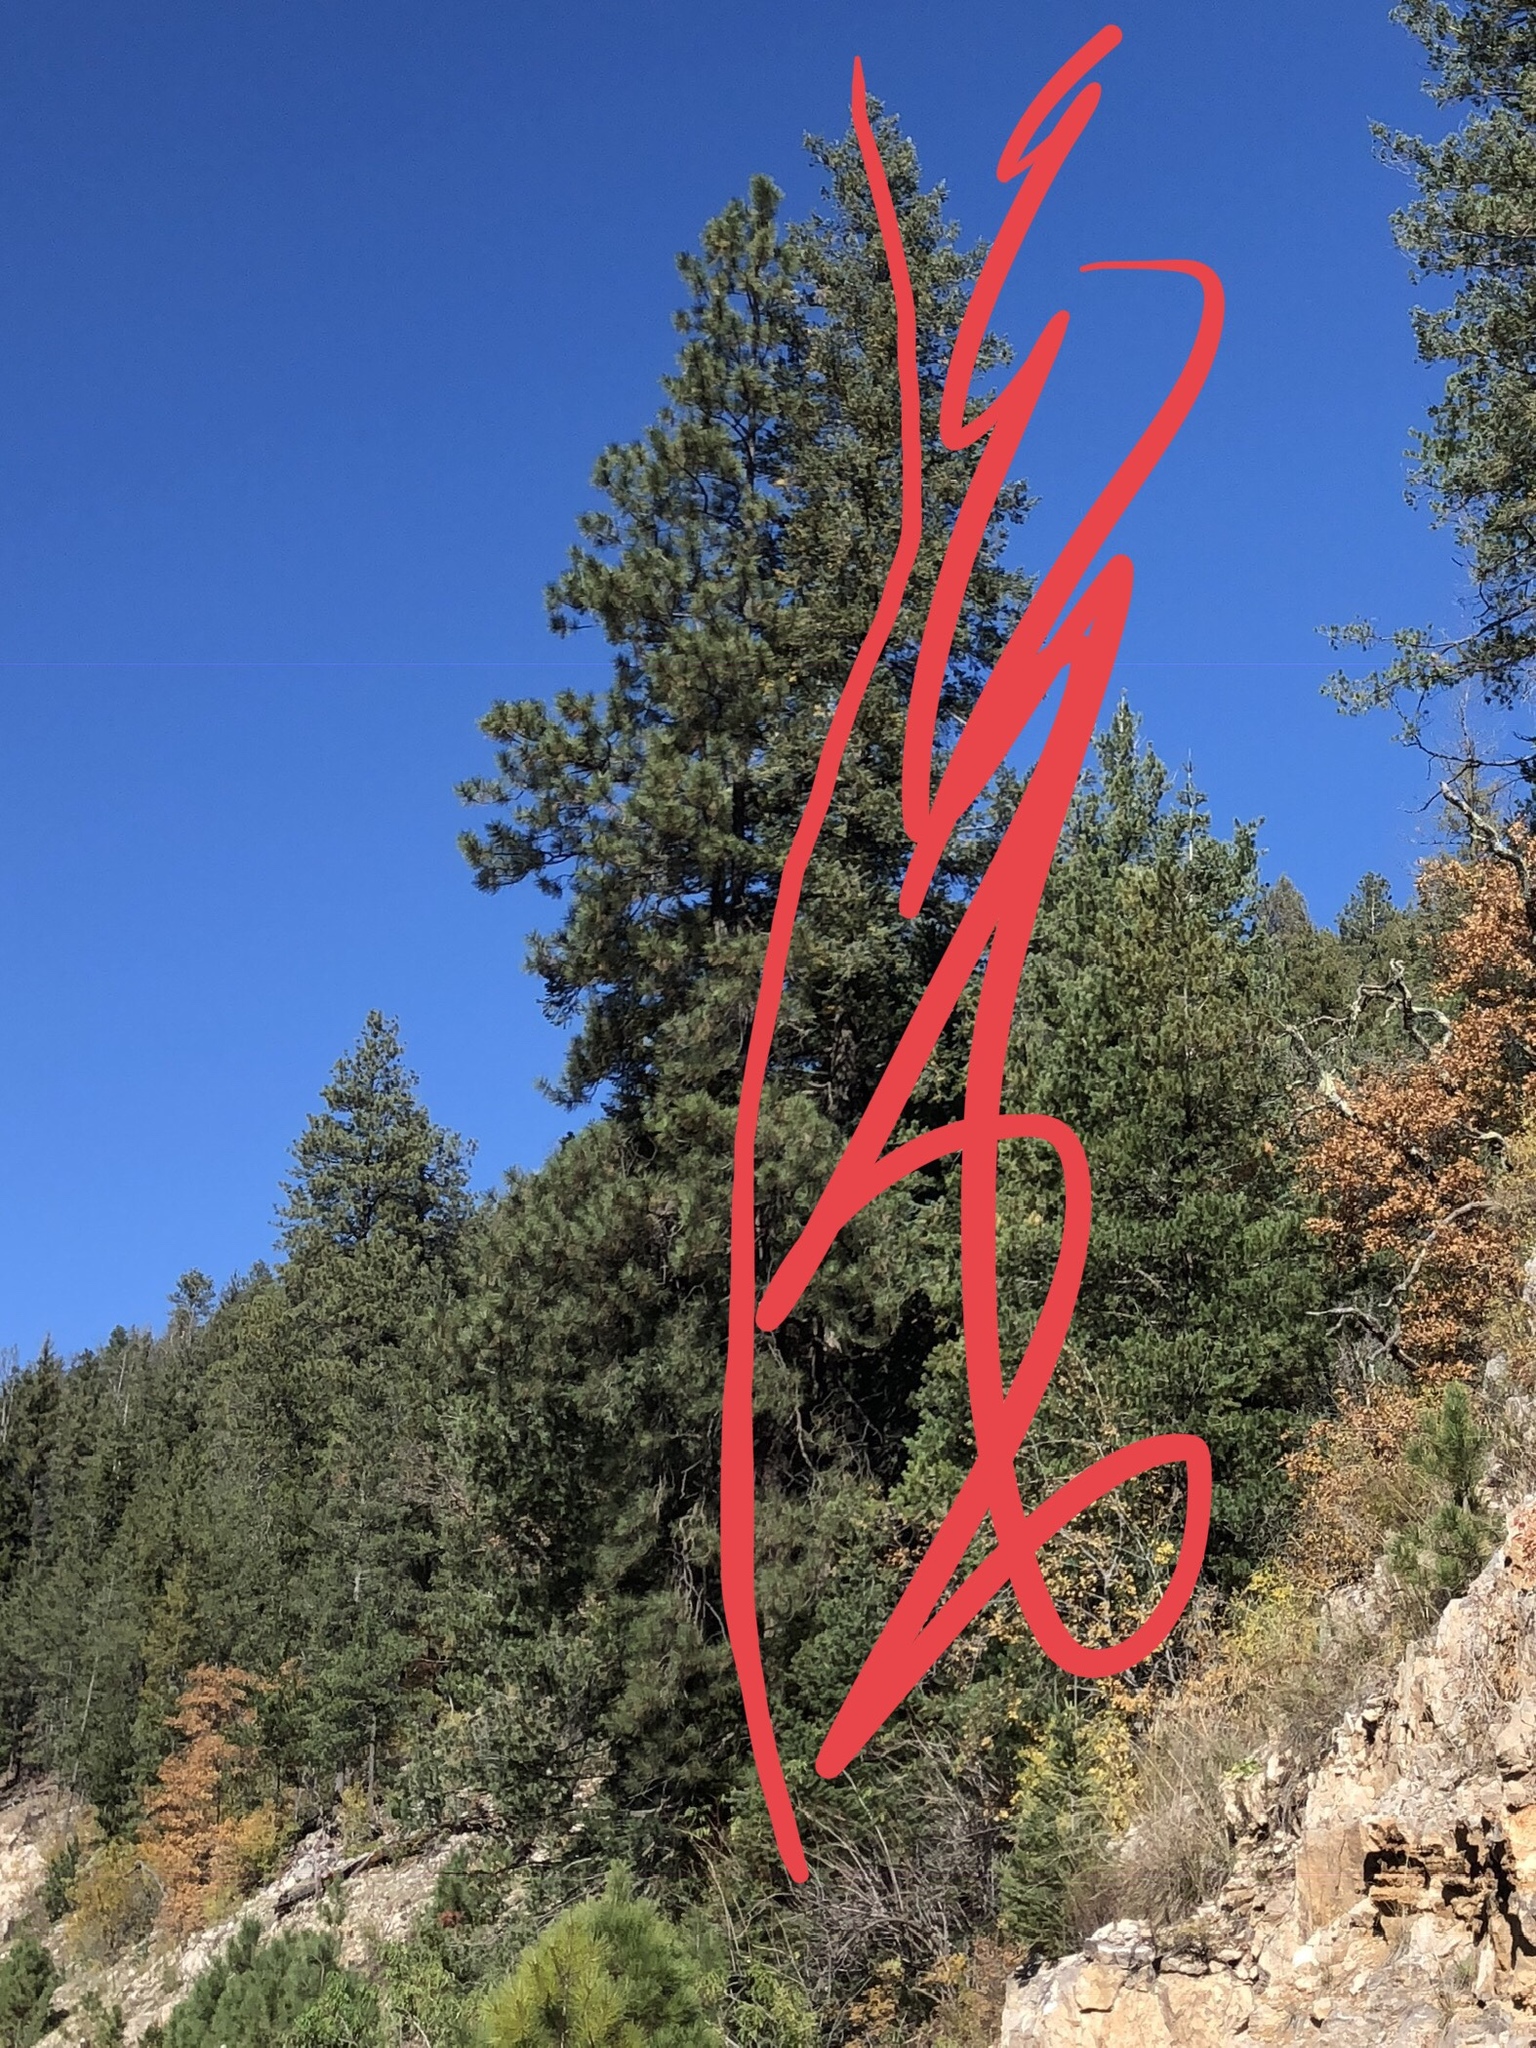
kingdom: Plantae
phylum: Tracheophyta
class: Pinopsida
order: Pinales
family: Pinaceae
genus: Pinus
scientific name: Pinus ponderosa
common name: Western yellow-pine
